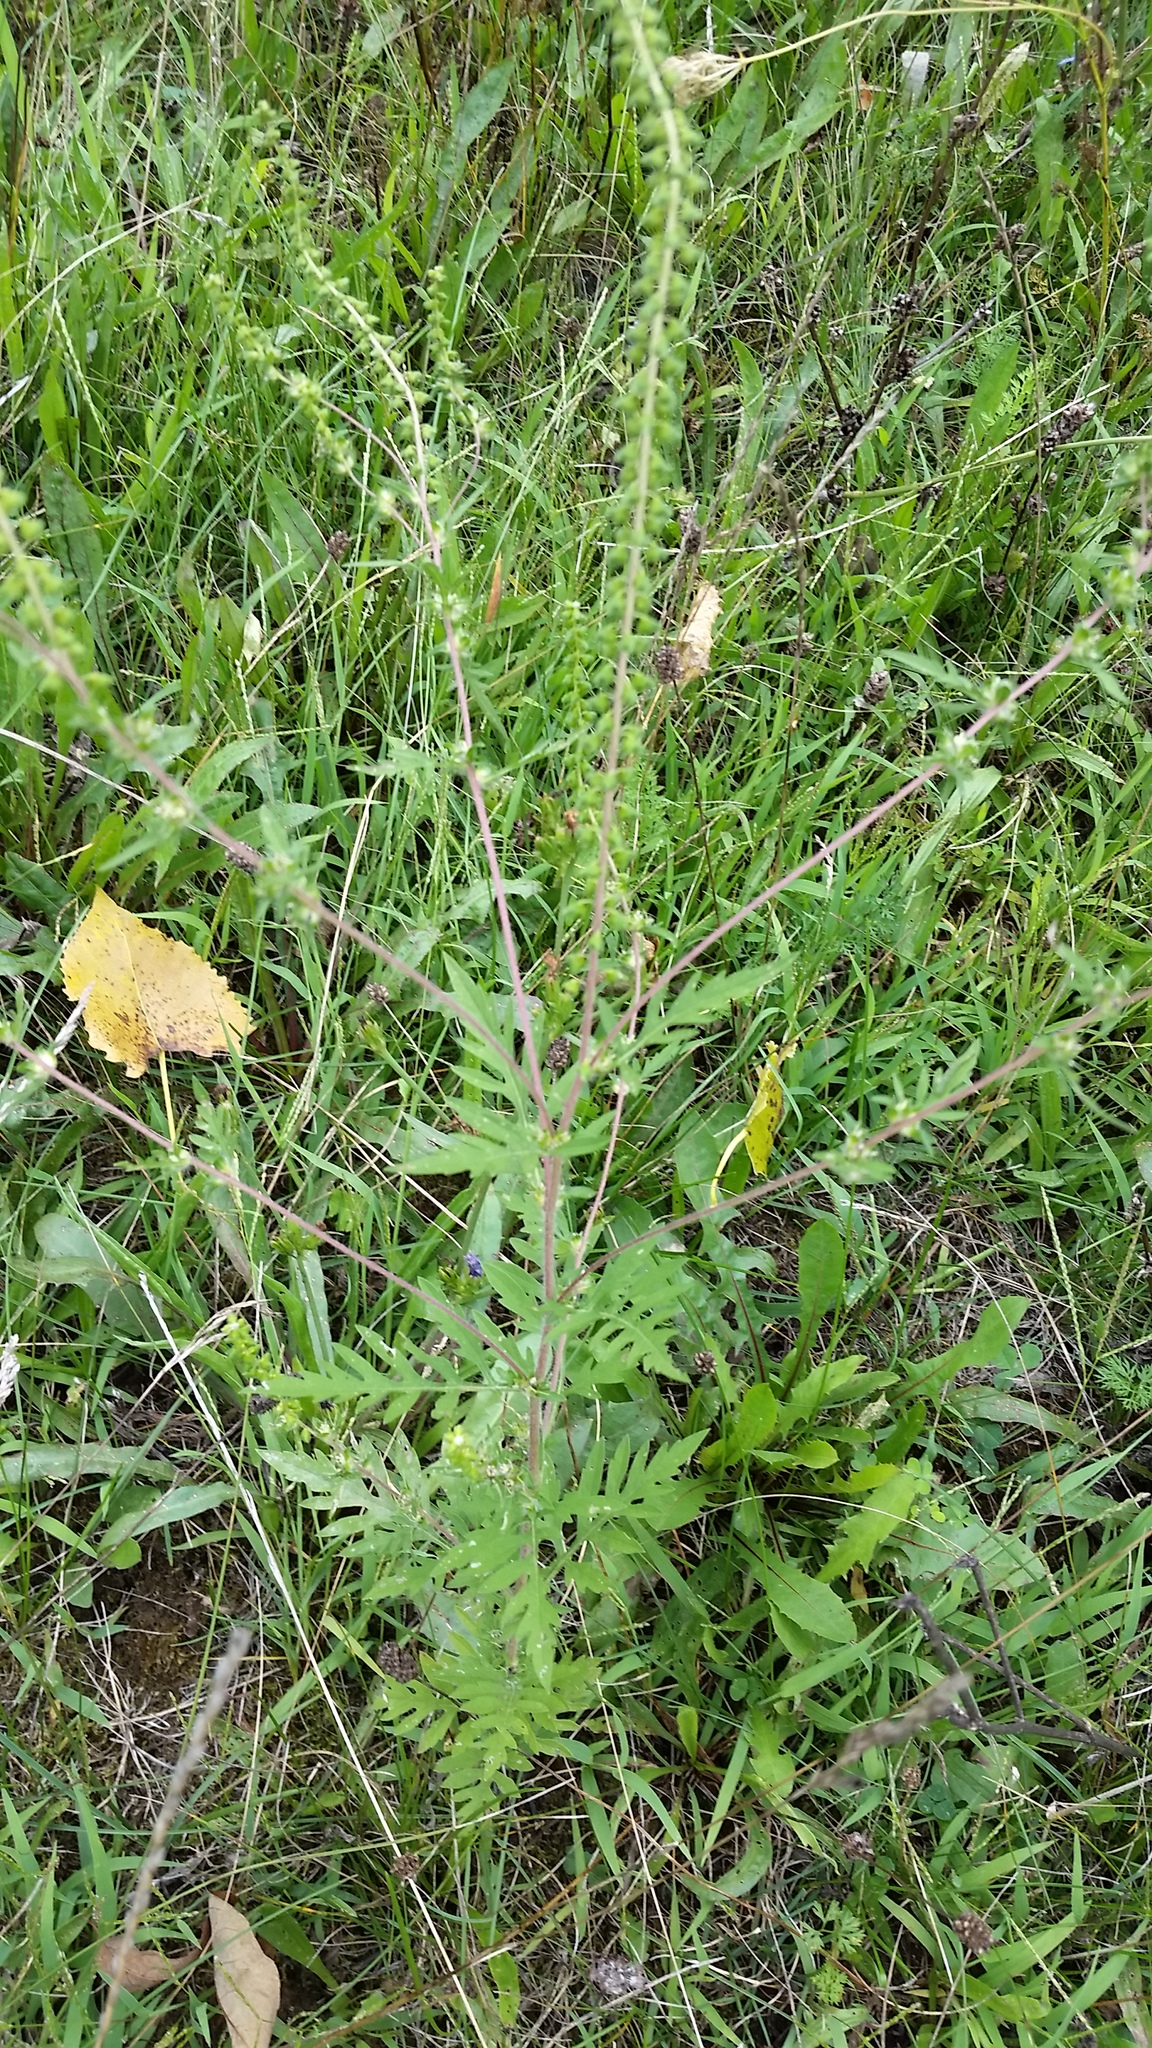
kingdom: Plantae
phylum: Tracheophyta
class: Magnoliopsida
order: Asterales
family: Asteraceae
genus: Ambrosia
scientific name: Ambrosia artemisiifolia
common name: Annual ragweed
